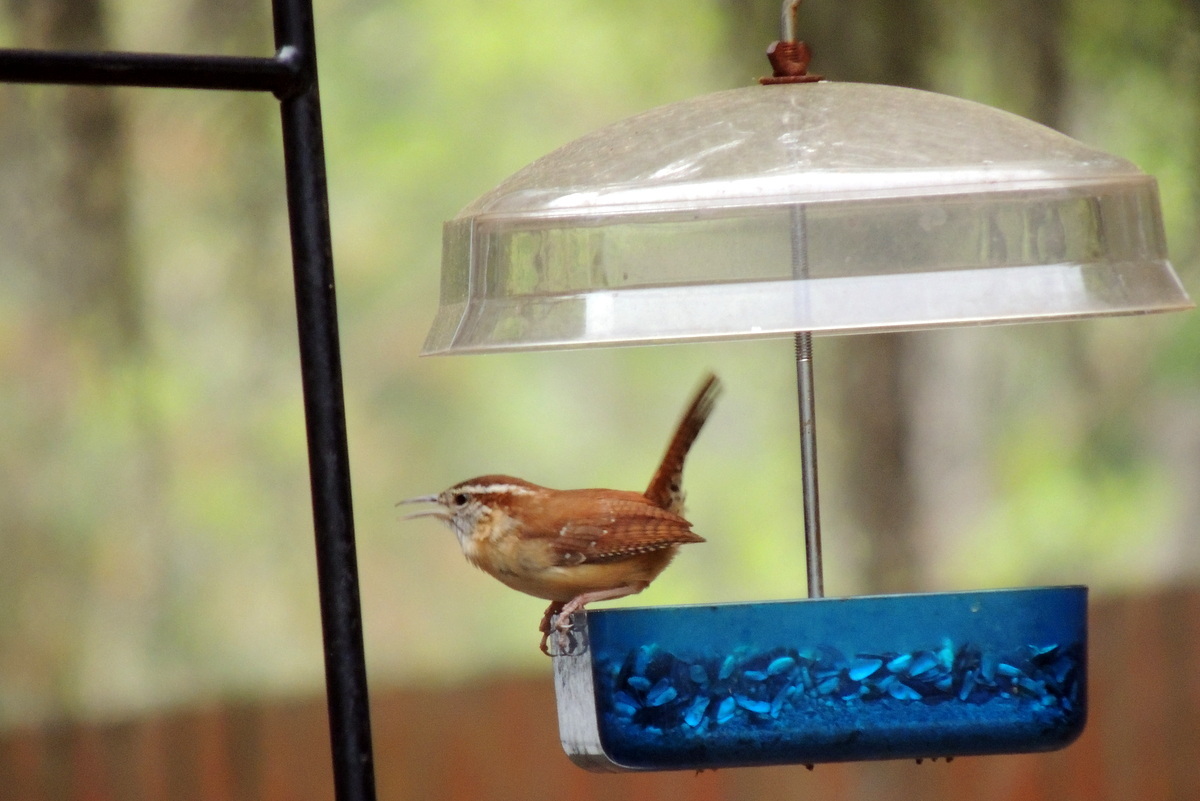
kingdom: Animalia
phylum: Chordata
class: Aves
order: Passeriformes
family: Troglodytidae
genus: Thryothorus
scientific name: Thryothorus ludovicianus
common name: Carolina wren
